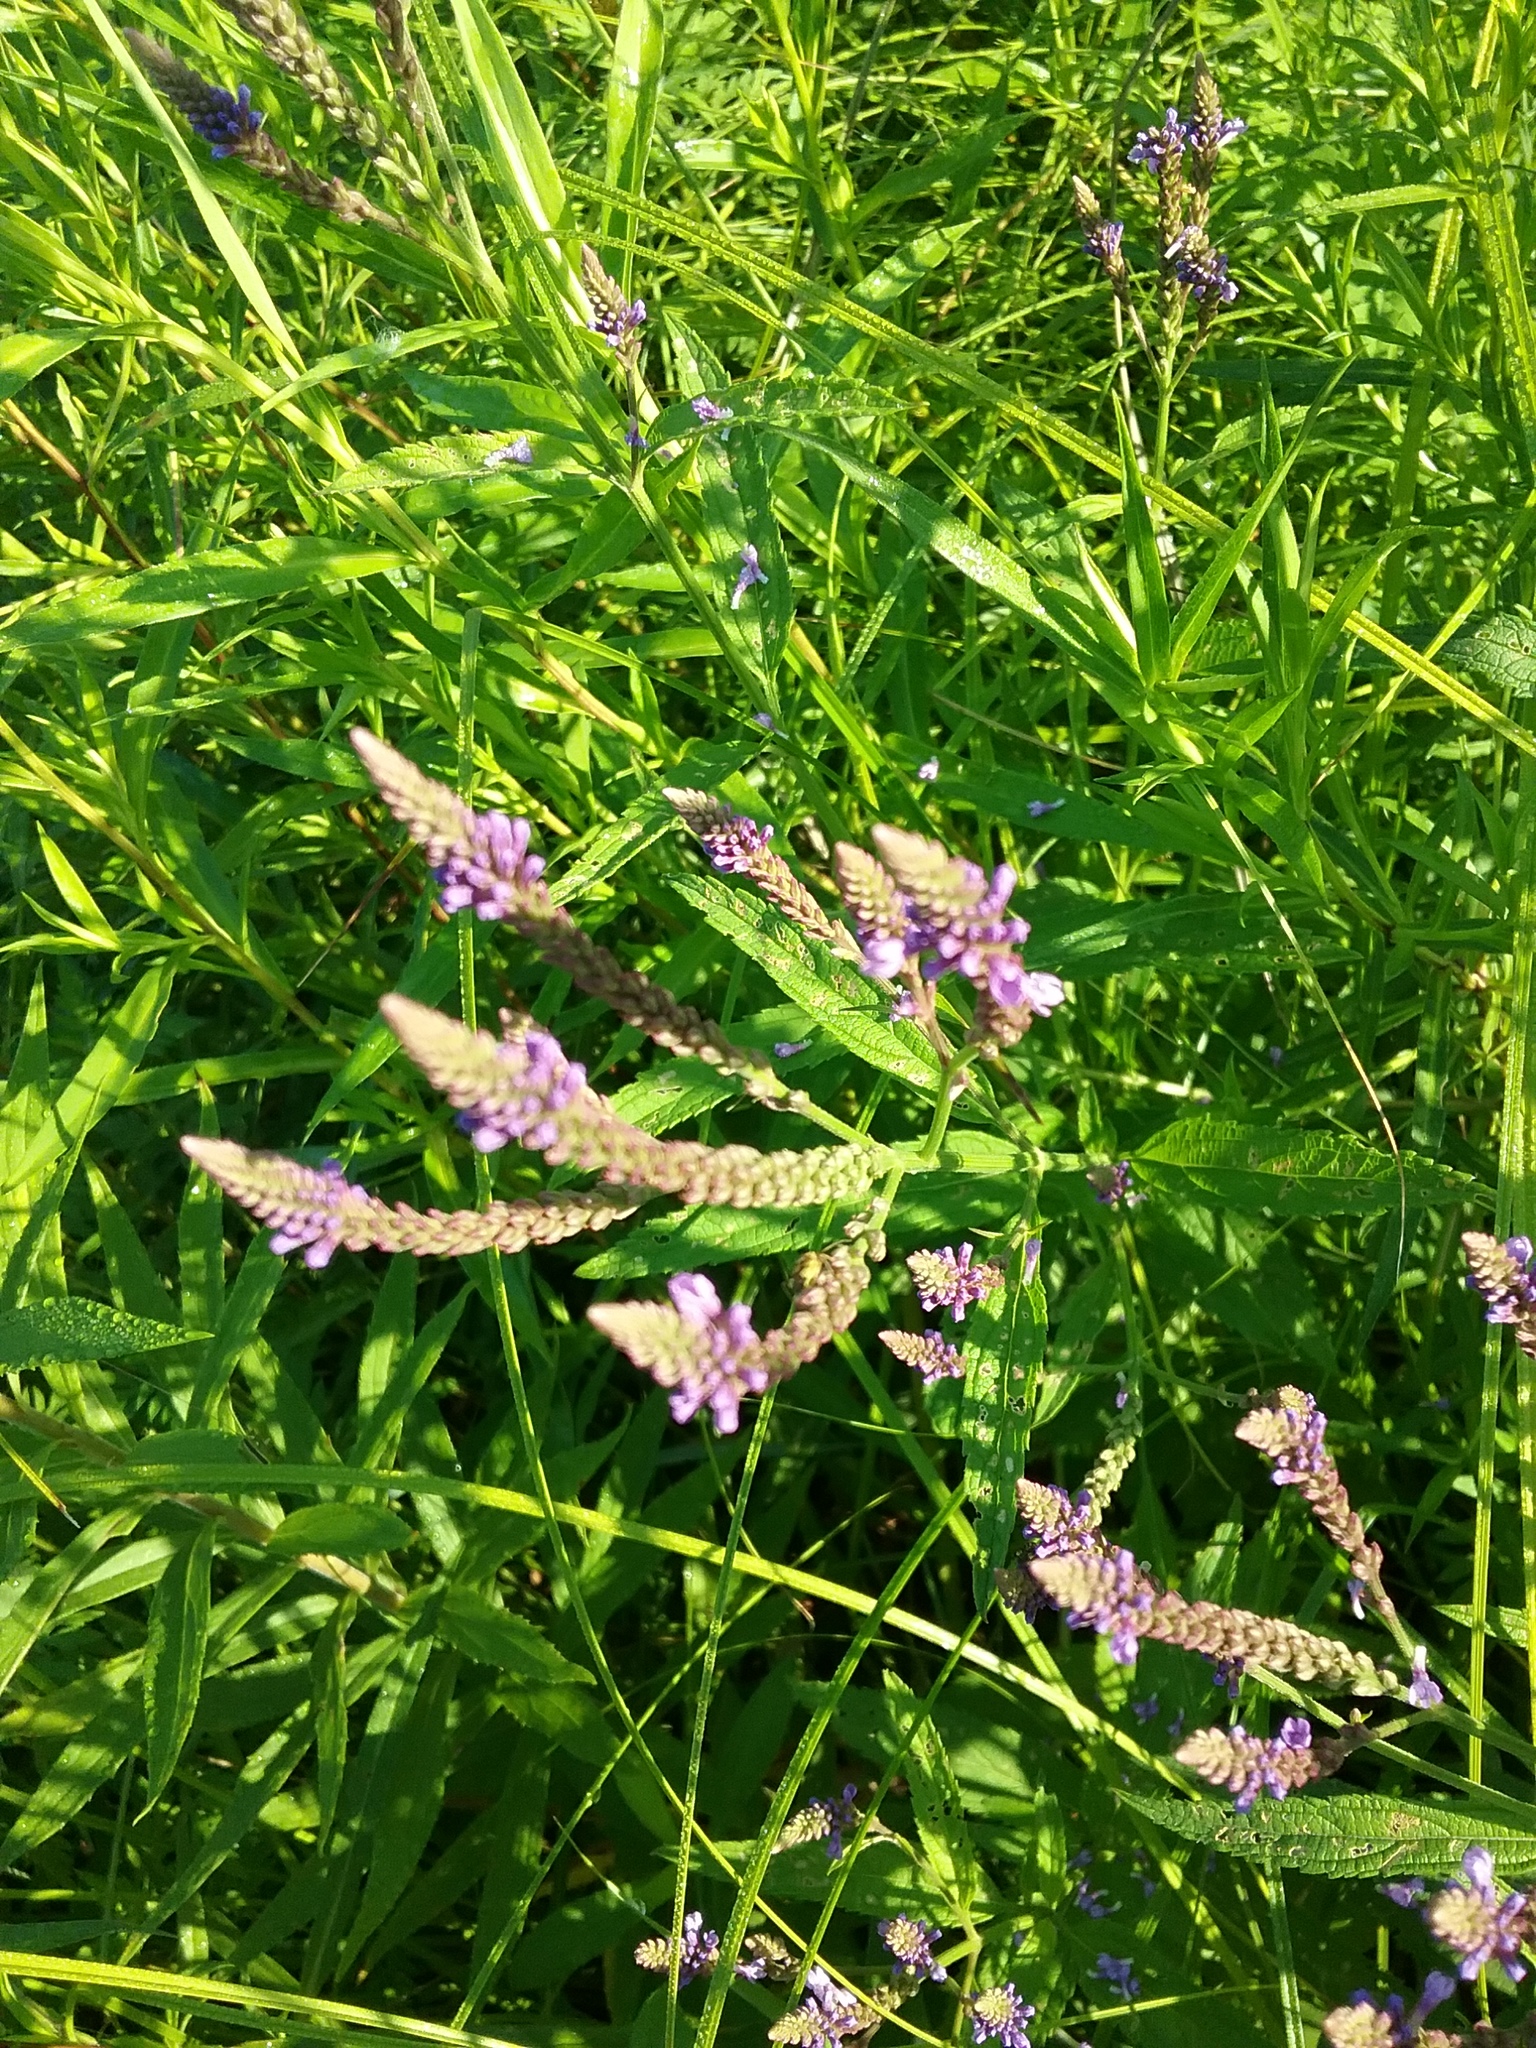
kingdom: Plantae
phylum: Tracheophyta
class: Magnoliopsida
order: Lamiales
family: Verbenaceae
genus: Verbena
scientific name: Verbena hastata
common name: American blue vervain
